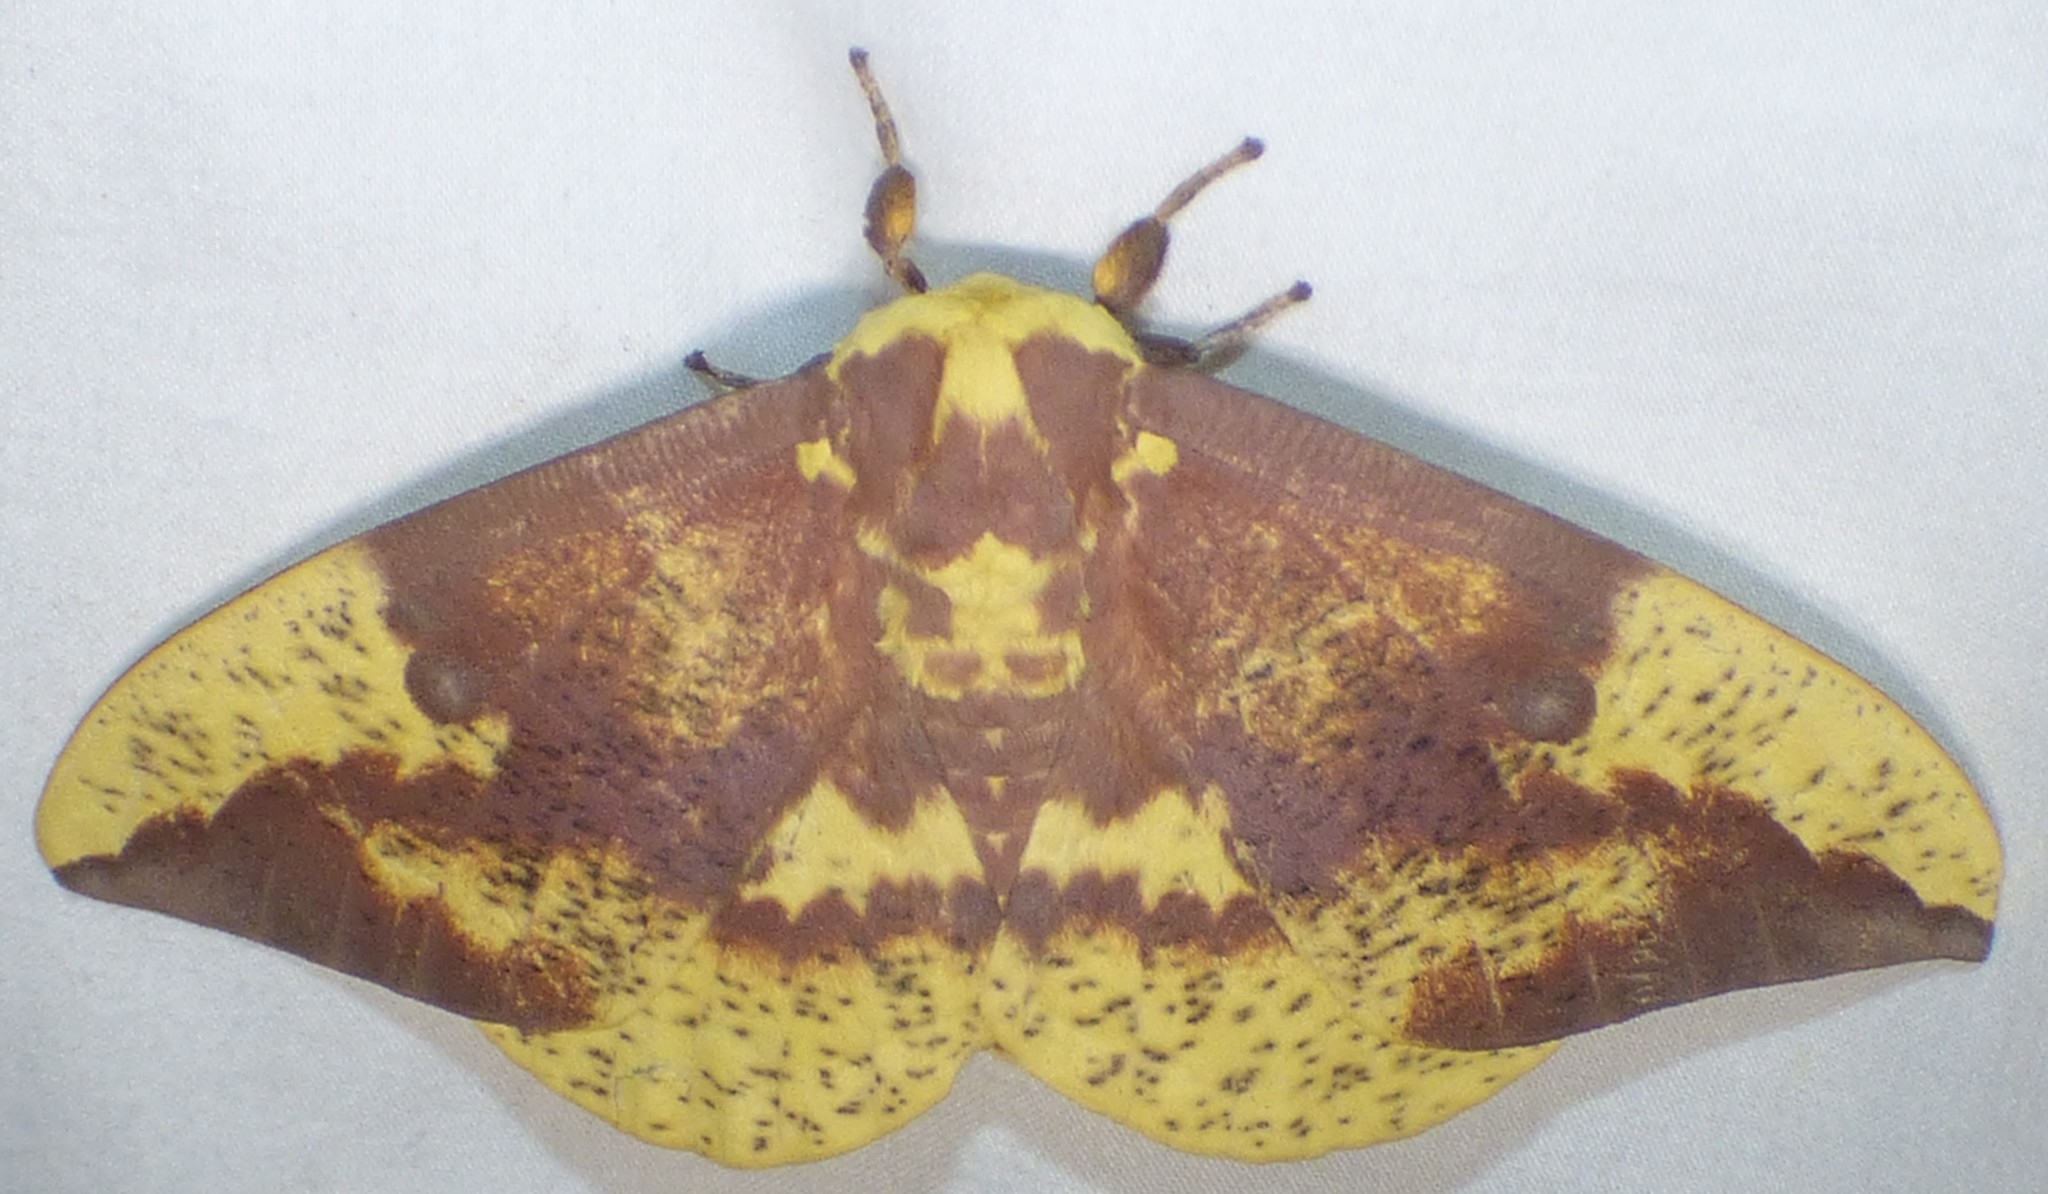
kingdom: Animalia
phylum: Arthropoda
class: Insecta
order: Lepidoptera
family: Saturniidae
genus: Eacles
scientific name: Eacles imperialis
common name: Imperial moth
